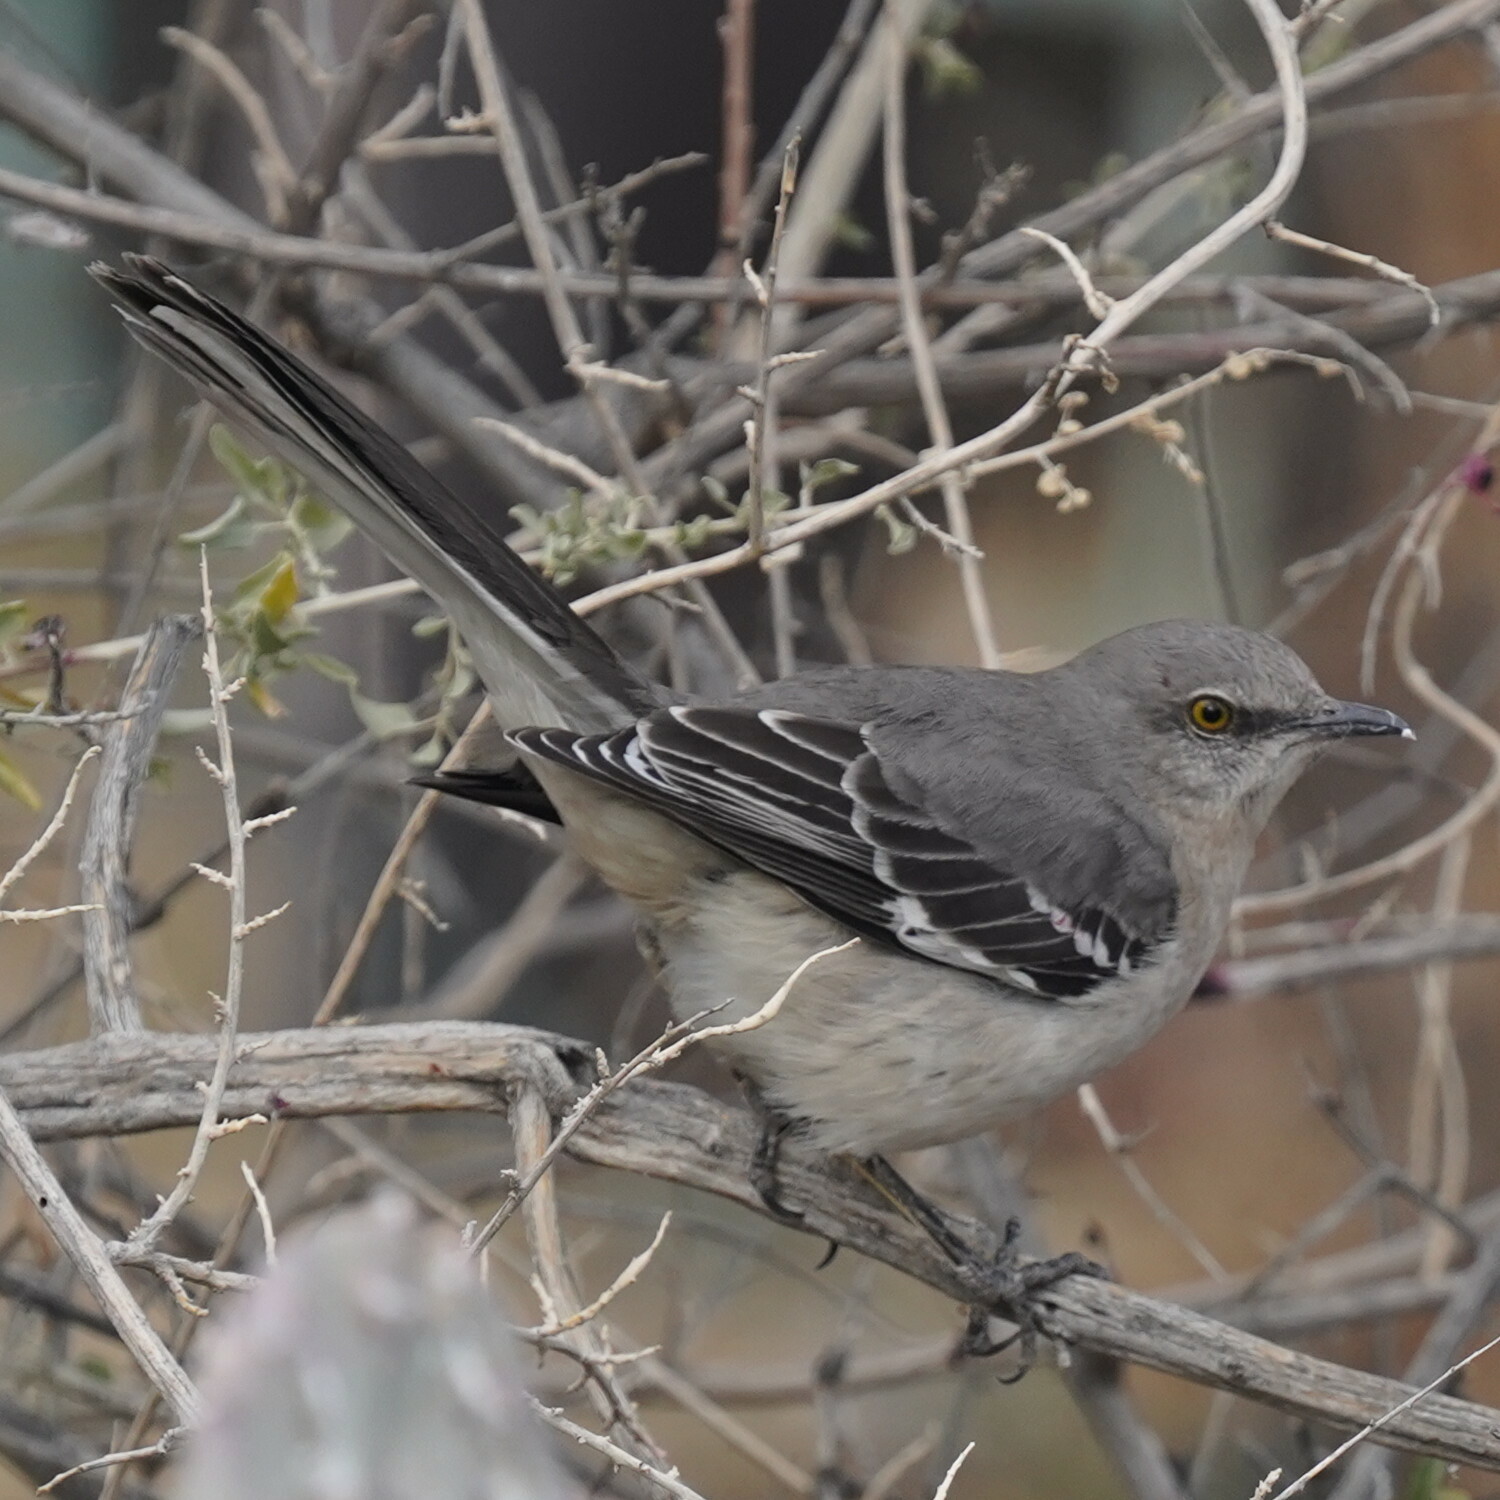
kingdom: Animalia
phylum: Chordata
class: Aves
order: Passeriformes
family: Mimidae
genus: Mimus
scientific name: Mimus polyglottos
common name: Northern mockingbird
